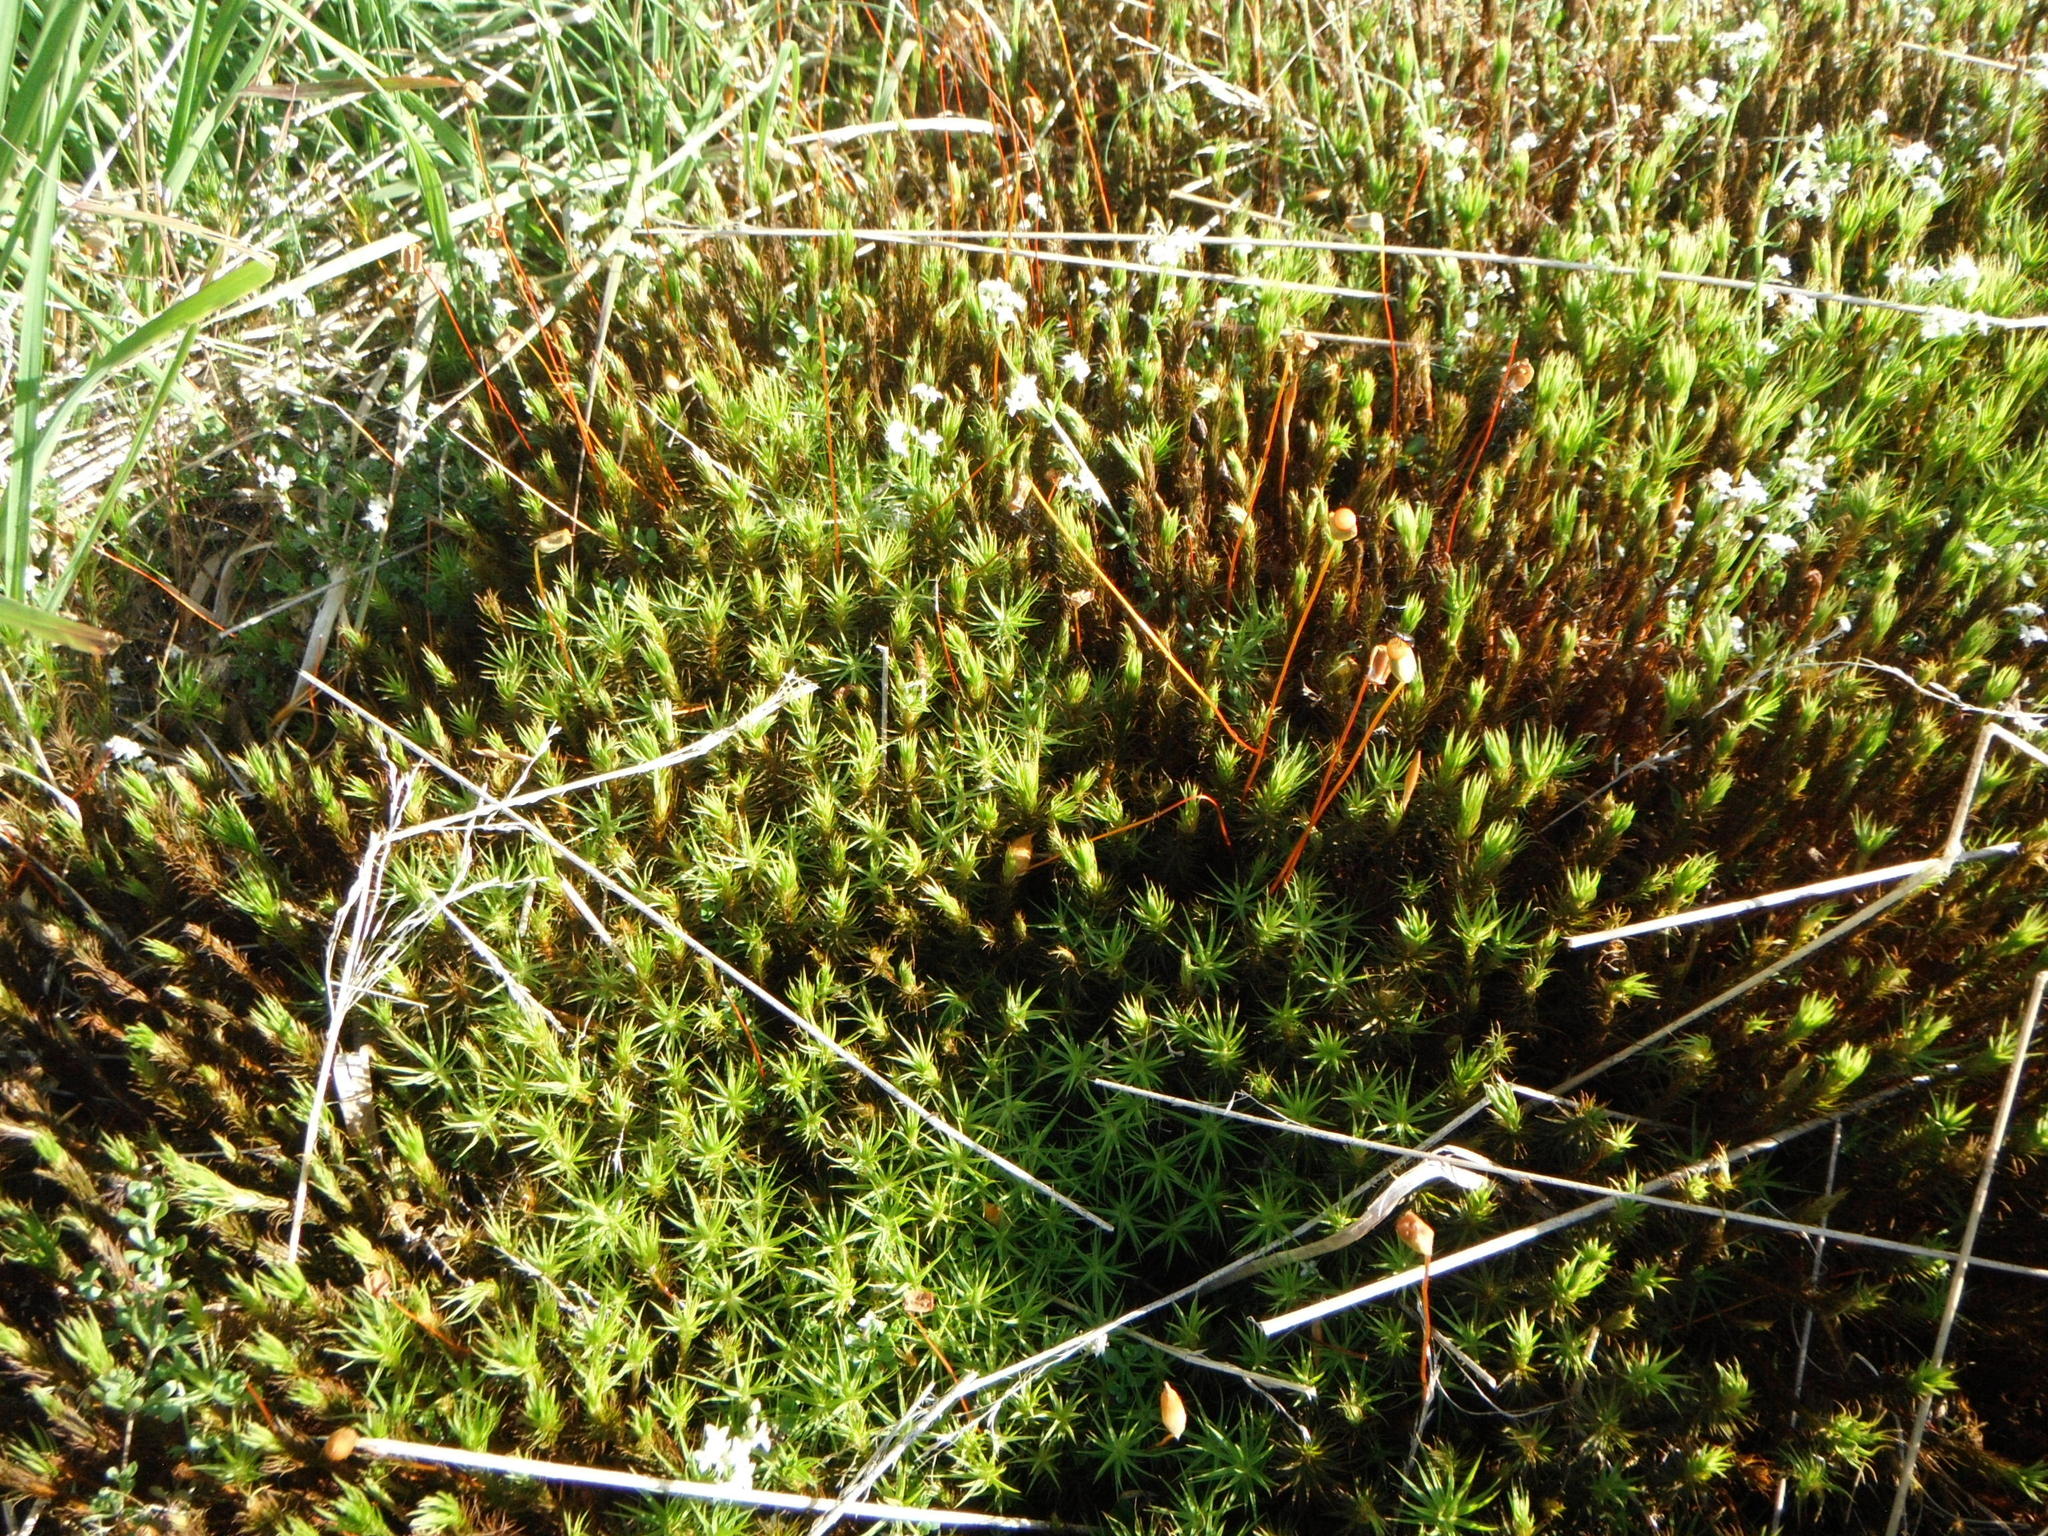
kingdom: Plantae
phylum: Bryophyta
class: Polytrichopsida
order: Polytrichales
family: Polytrichaceae
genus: Polytrichum
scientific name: Polytrichum commune
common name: Common haircap
